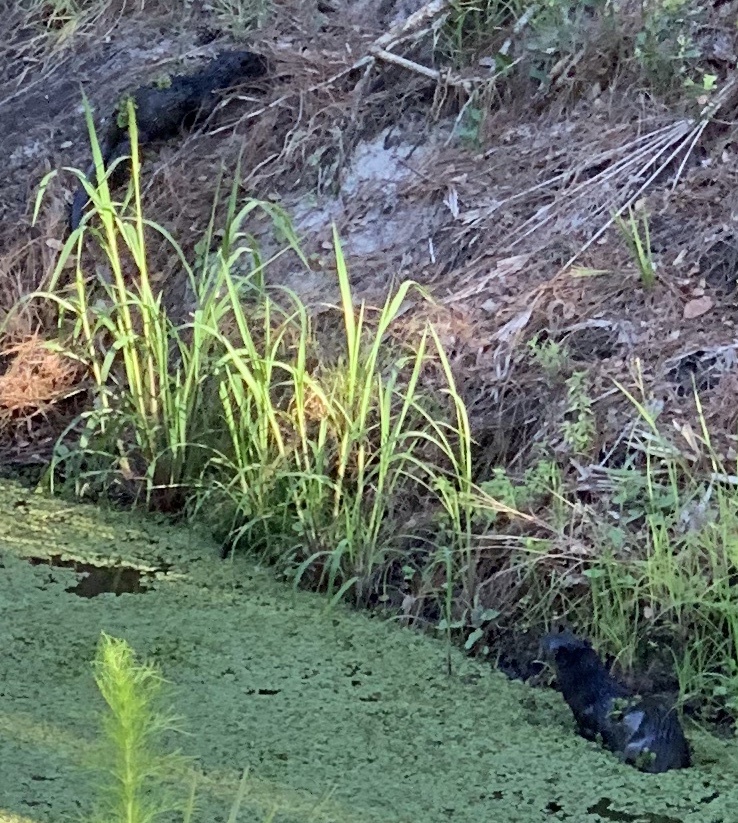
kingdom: Animalia
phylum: Chordata
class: Mammalia
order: Carnivora
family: Mustelidae
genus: Lontra
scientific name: Lontra canadensis
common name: North american river otter
